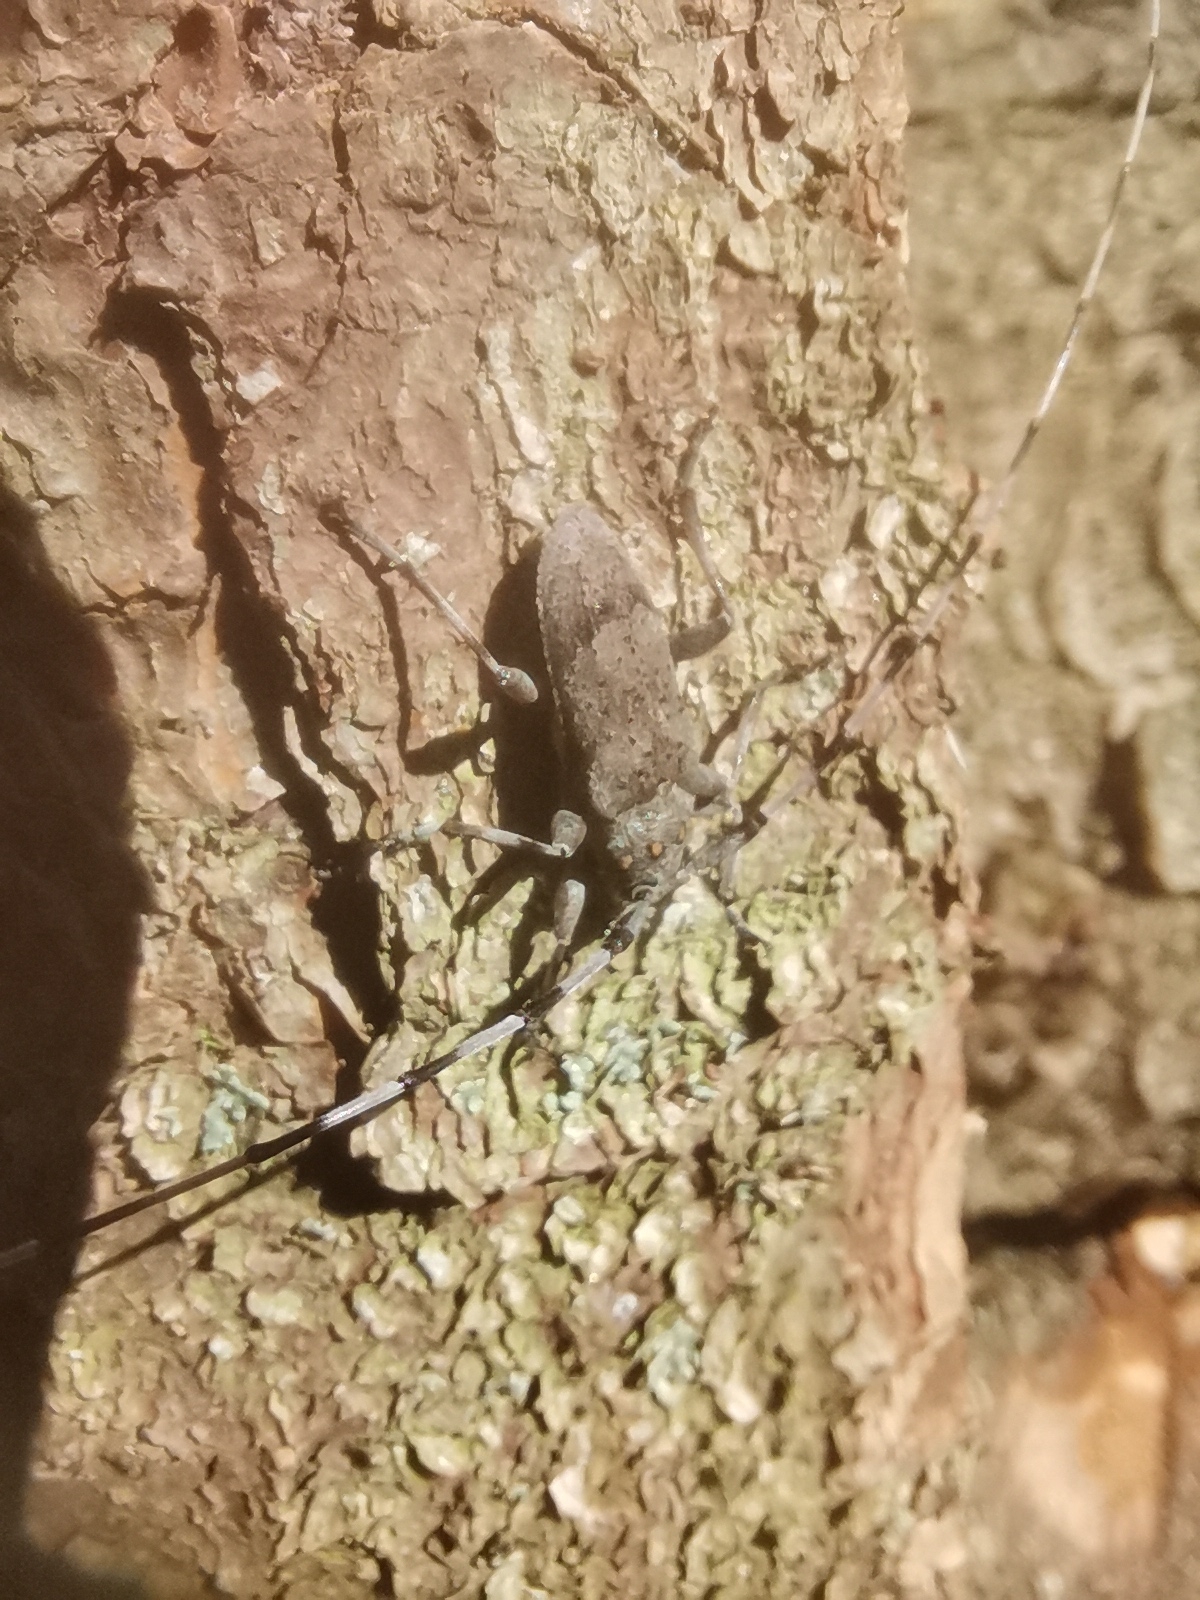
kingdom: Animalia
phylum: Arthropoda
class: Insecta
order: Coleoptera
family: Cerambycidae
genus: Acanthocinus
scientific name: Acanthocinus aedilis
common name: Timberman beetle
